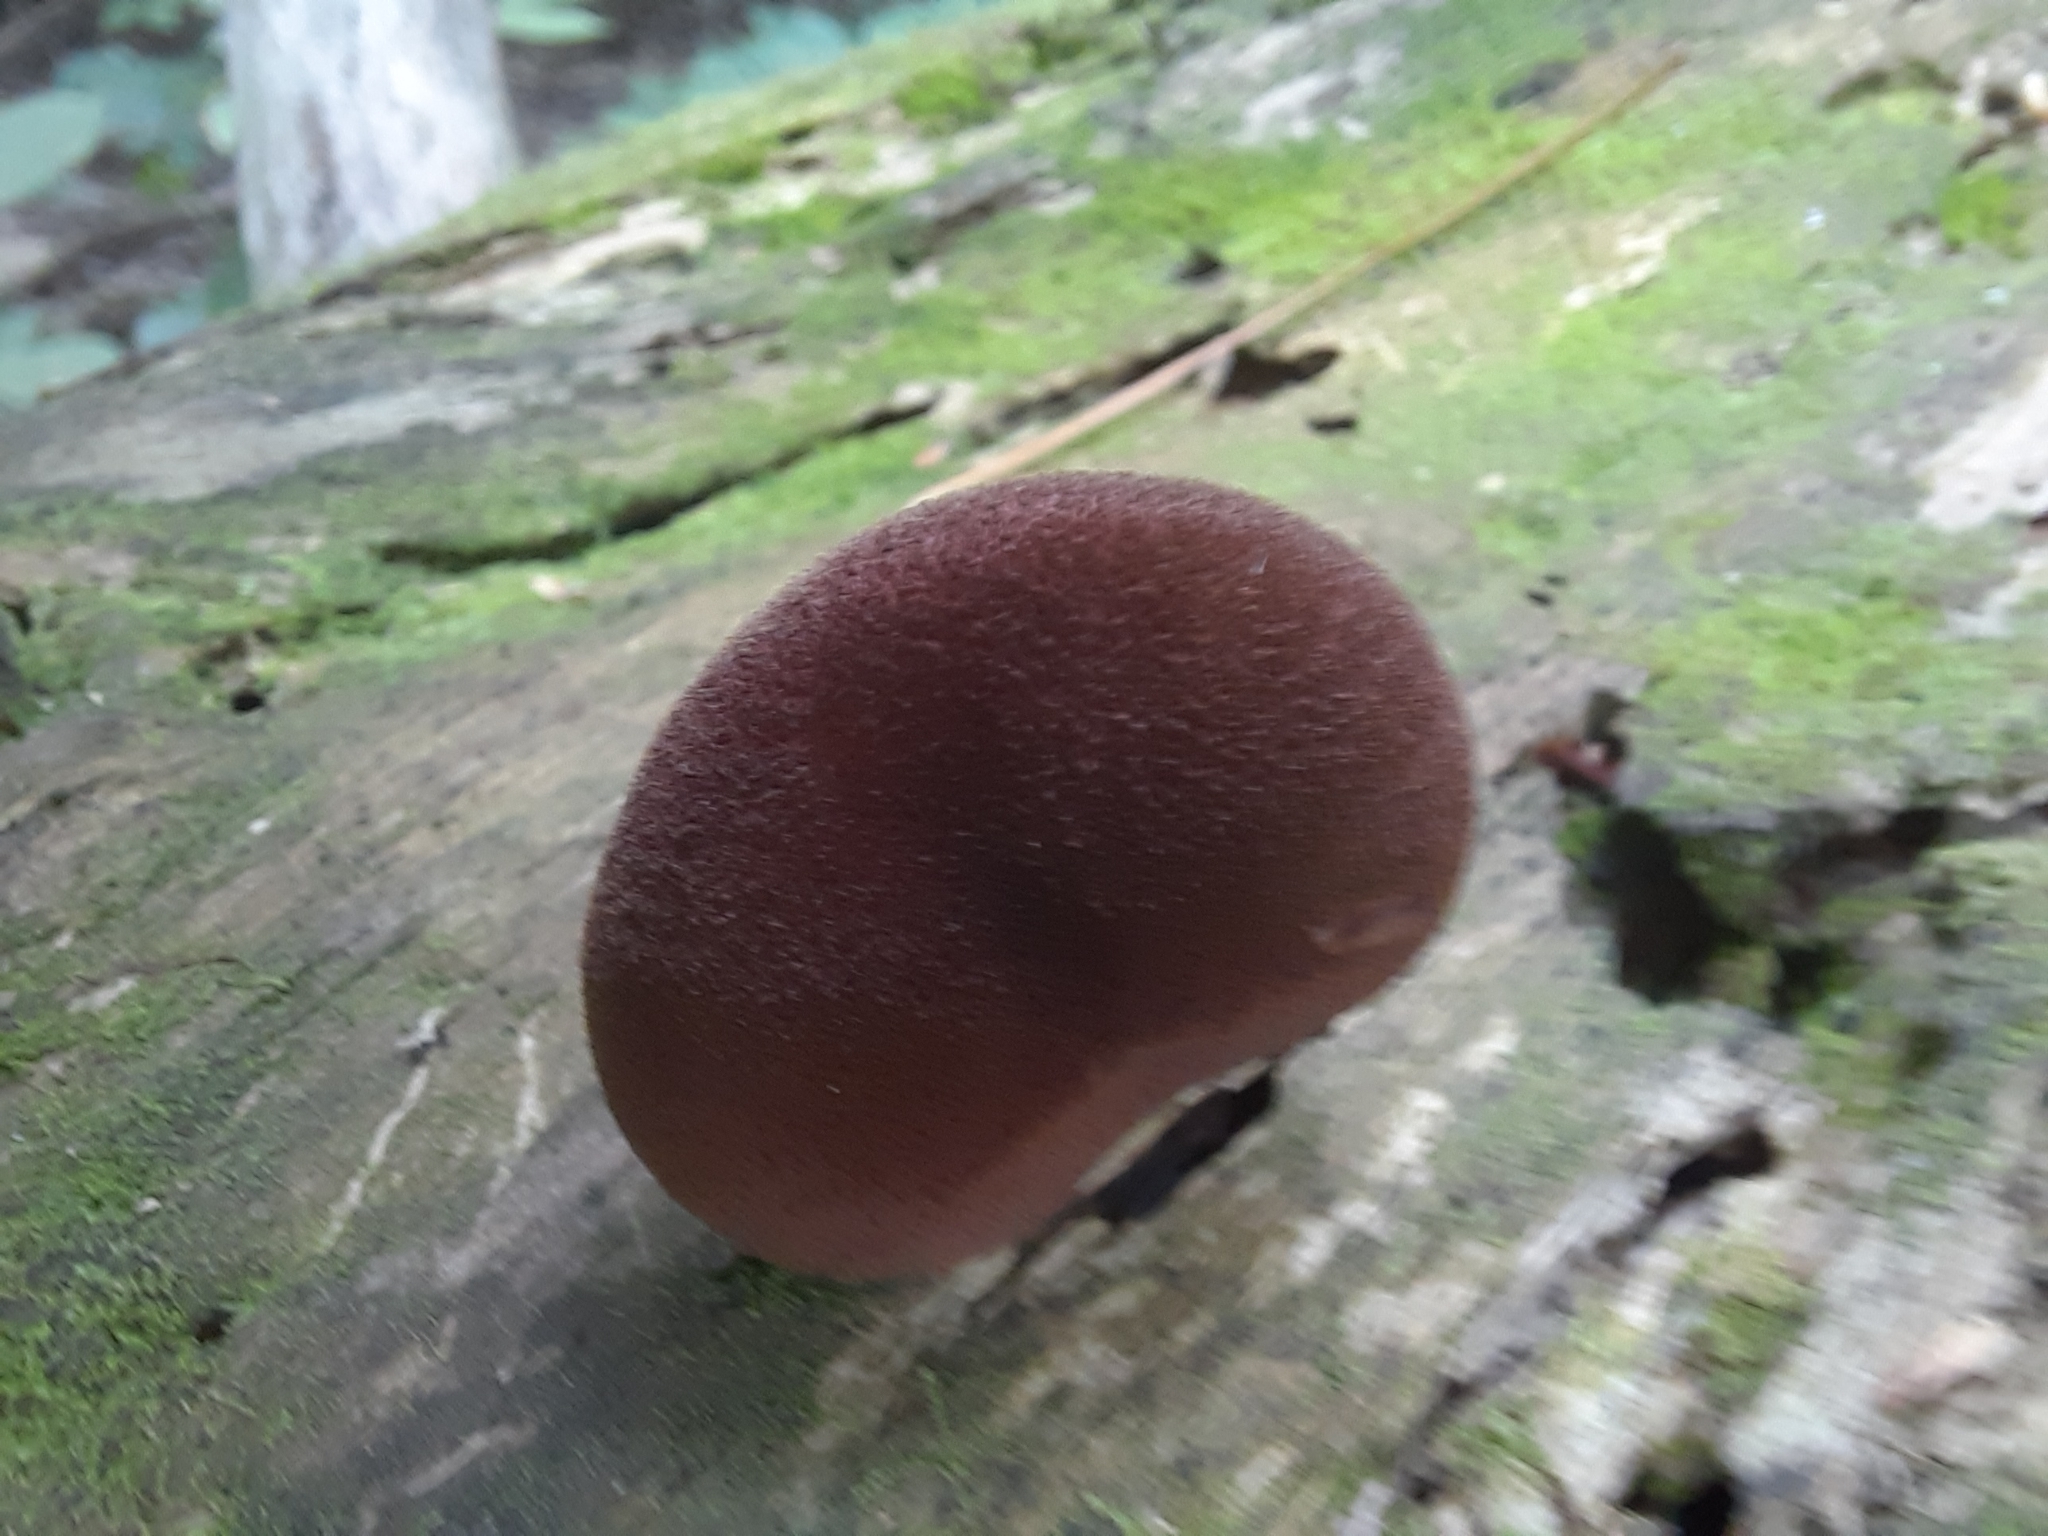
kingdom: Fungi
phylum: Basidiomycota
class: Agaricomycetes
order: Agaricales
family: Tricholomataceae
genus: Tricholomopsis
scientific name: Tricholomopsis rutilans
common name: Plums and custard
